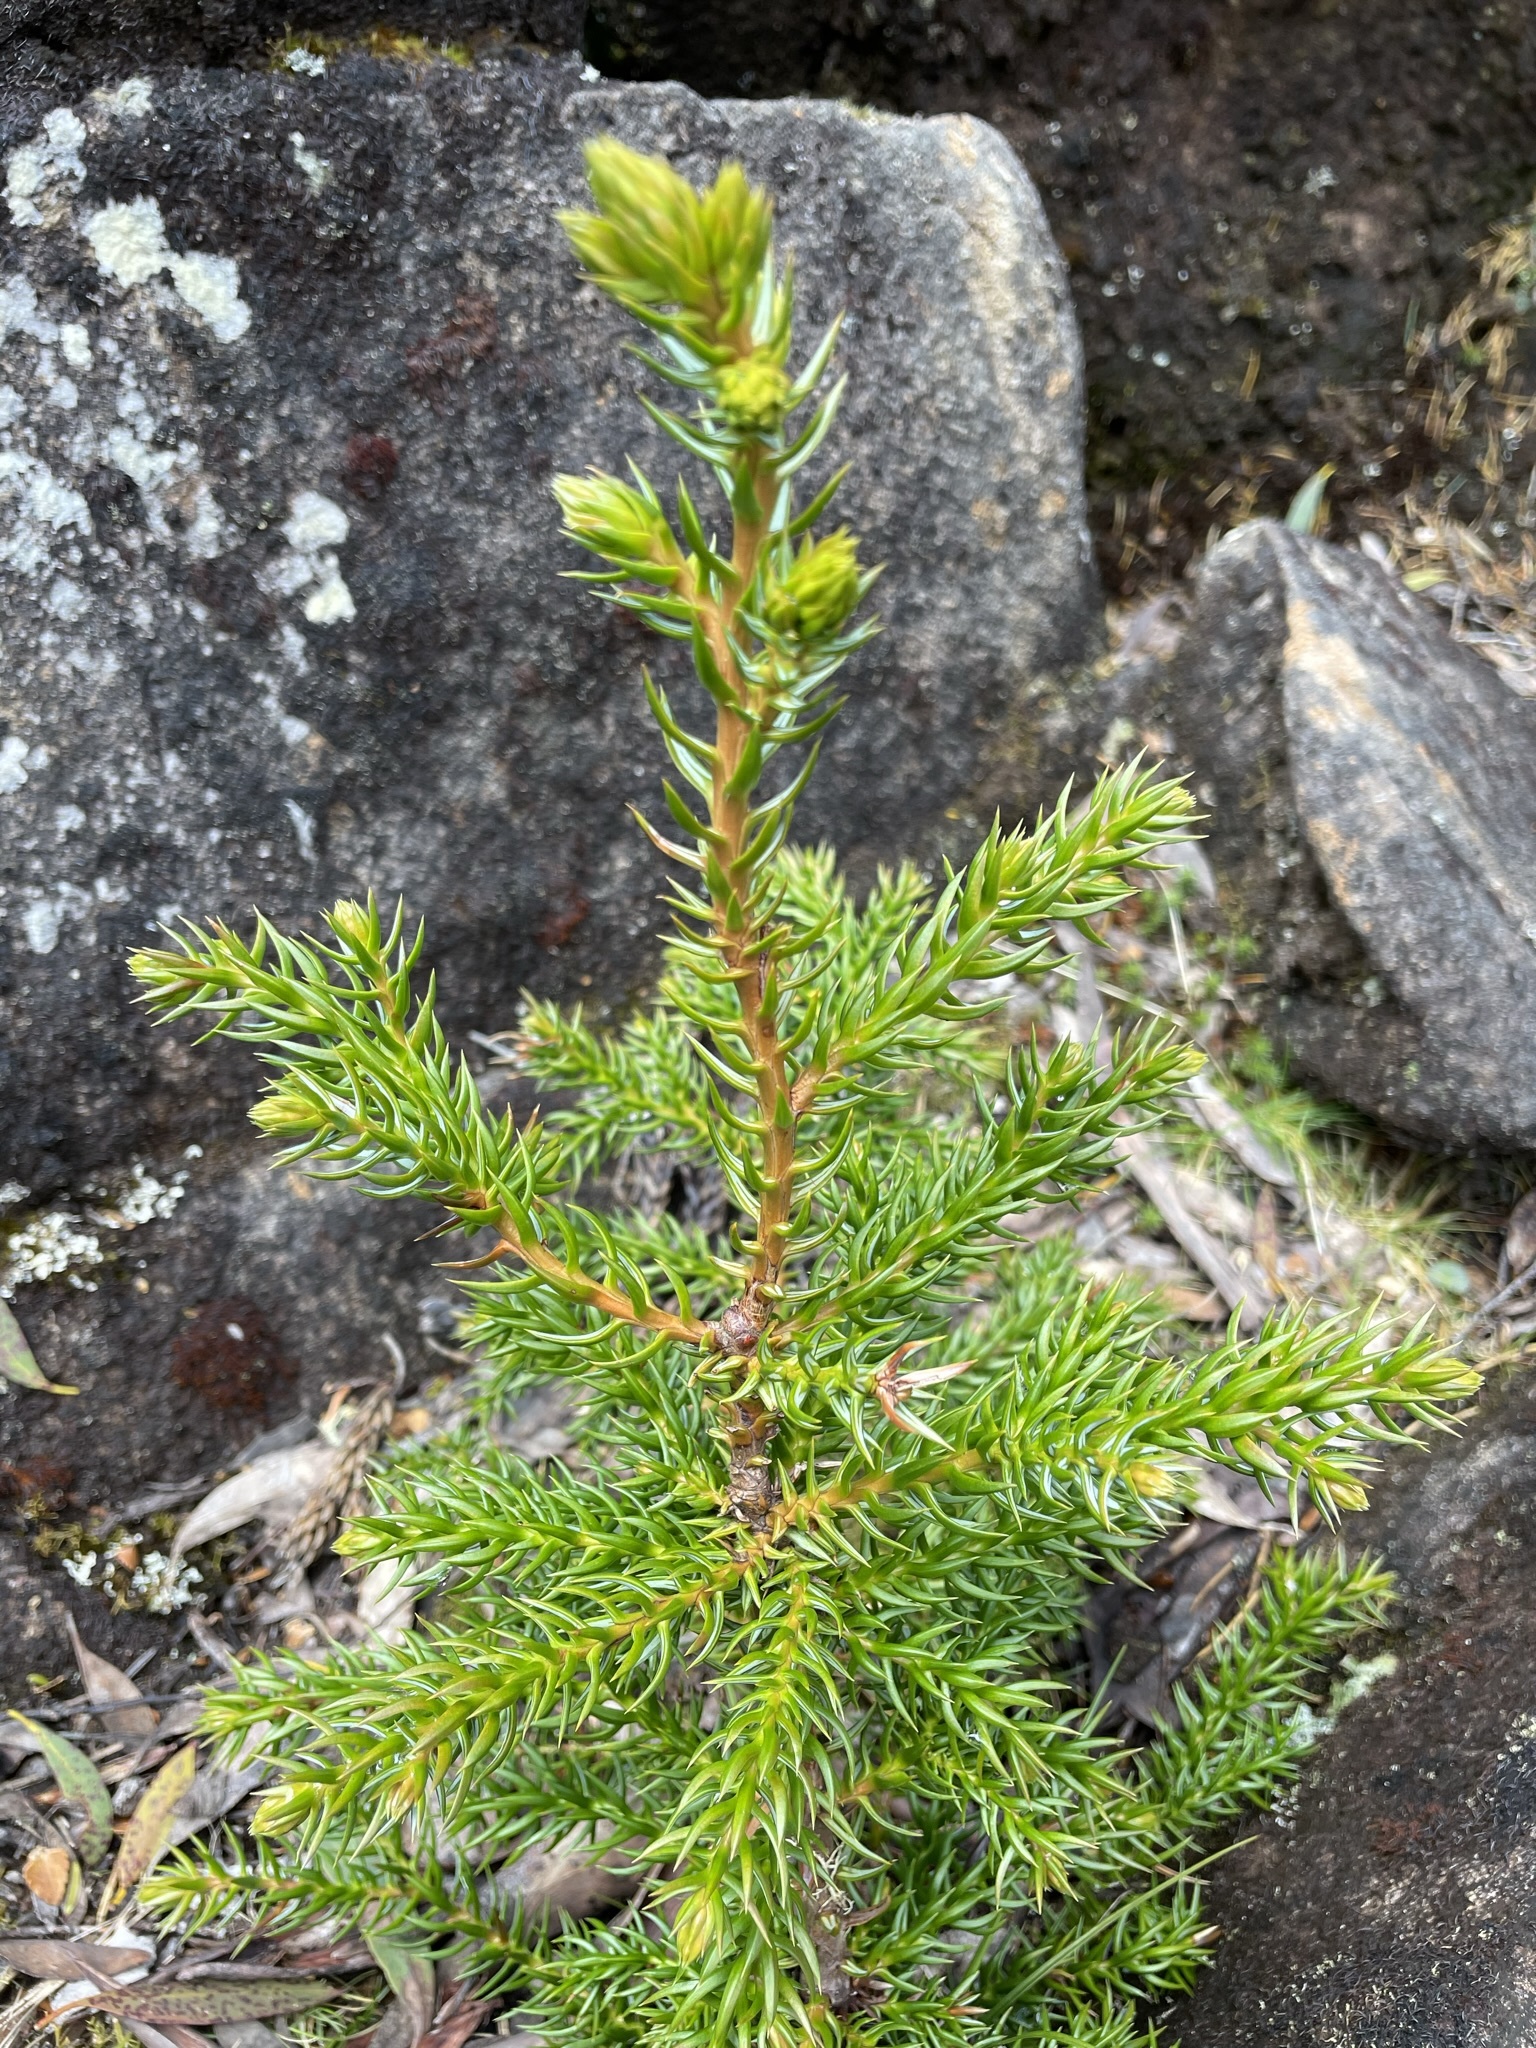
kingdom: Plantae
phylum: Tracheophyta
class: Pinopsida
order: Pinales
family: Cupressaceae
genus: Athrotaxis
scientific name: Athrotaxis selaginoides
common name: King william pine
